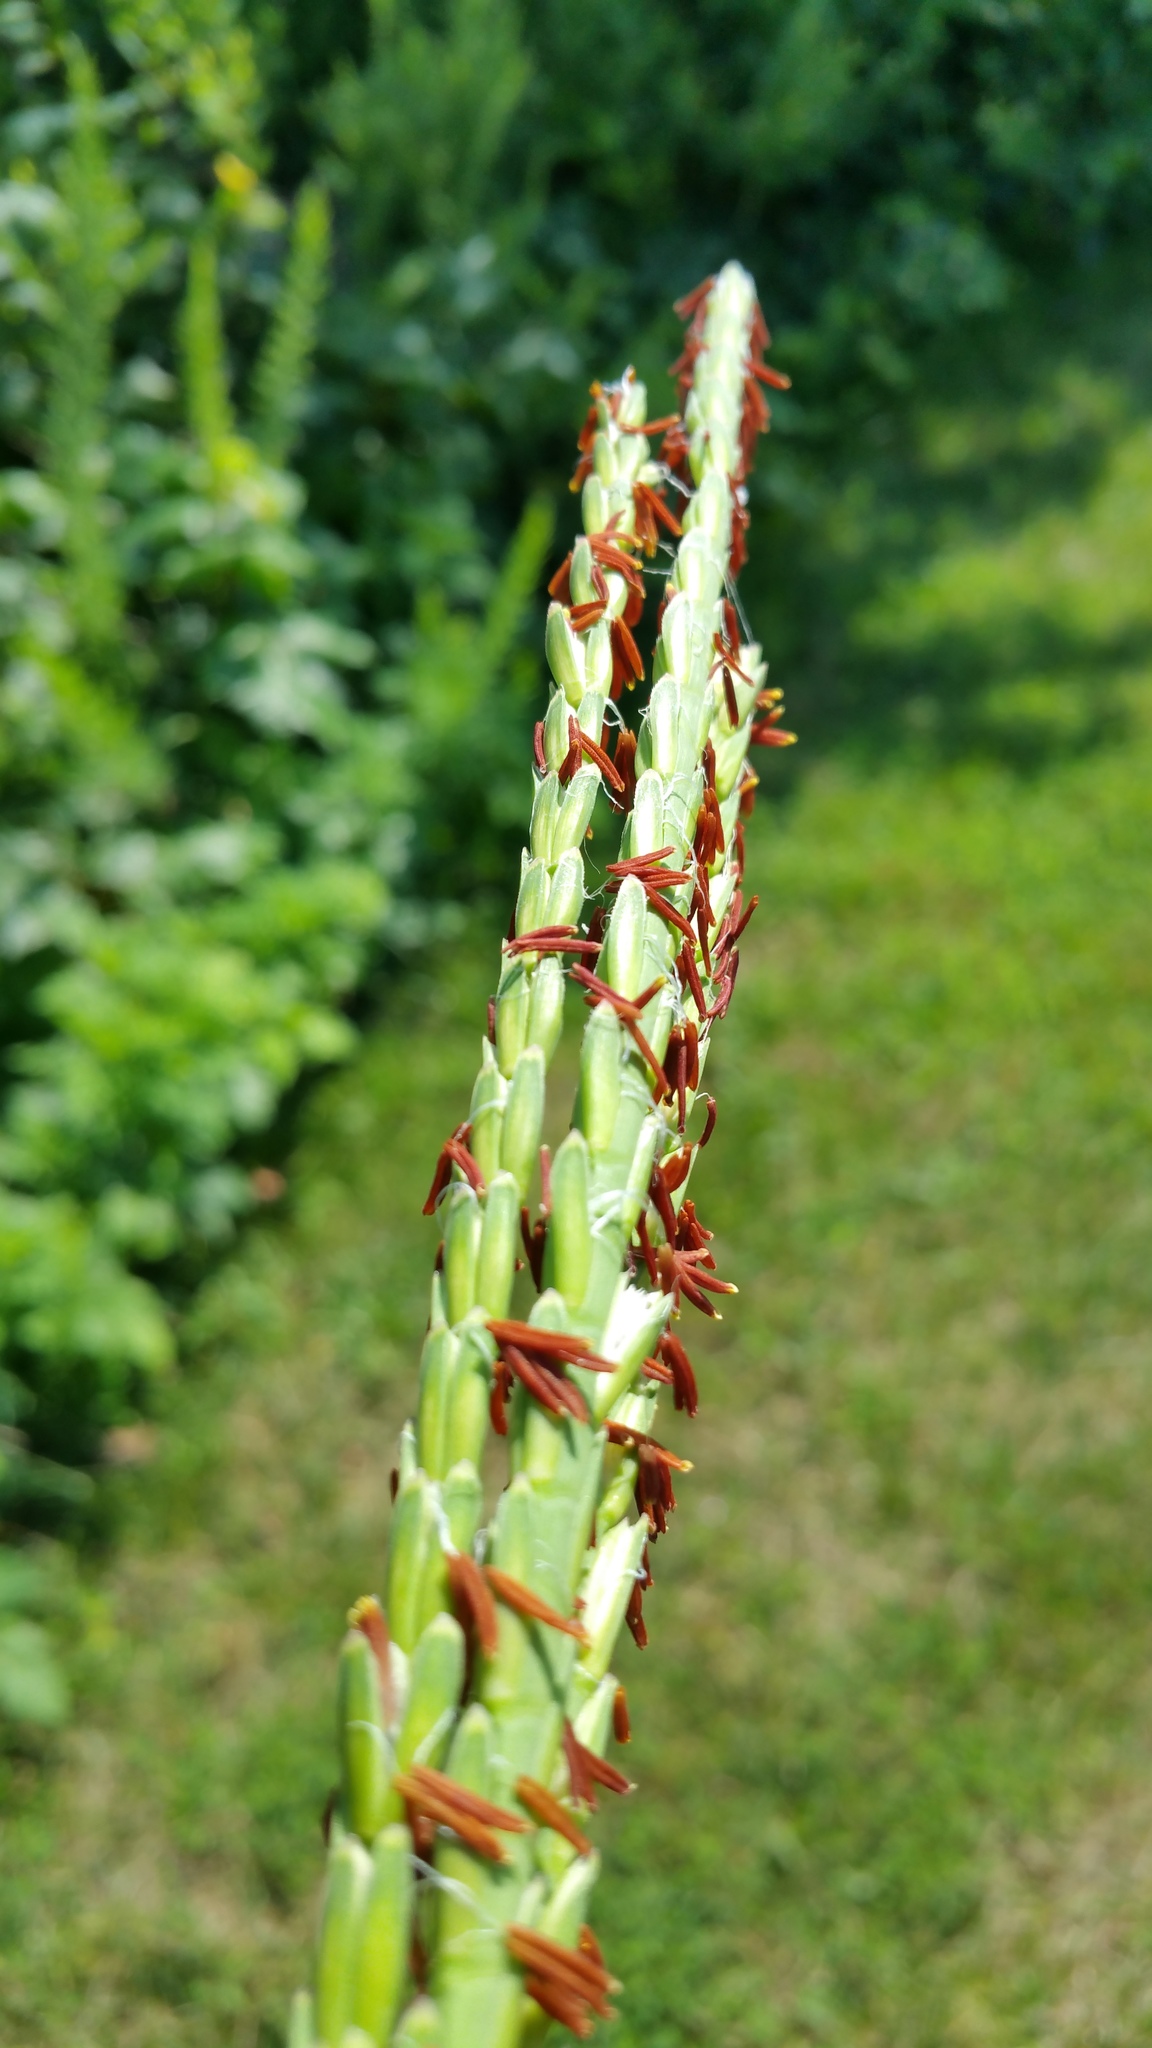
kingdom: Plantae
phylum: Tracheophyta
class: Liliopsida
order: Poales
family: Poaceae
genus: Tripsacum
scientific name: Tripsacum dactyloides
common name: Buffalo-grass
